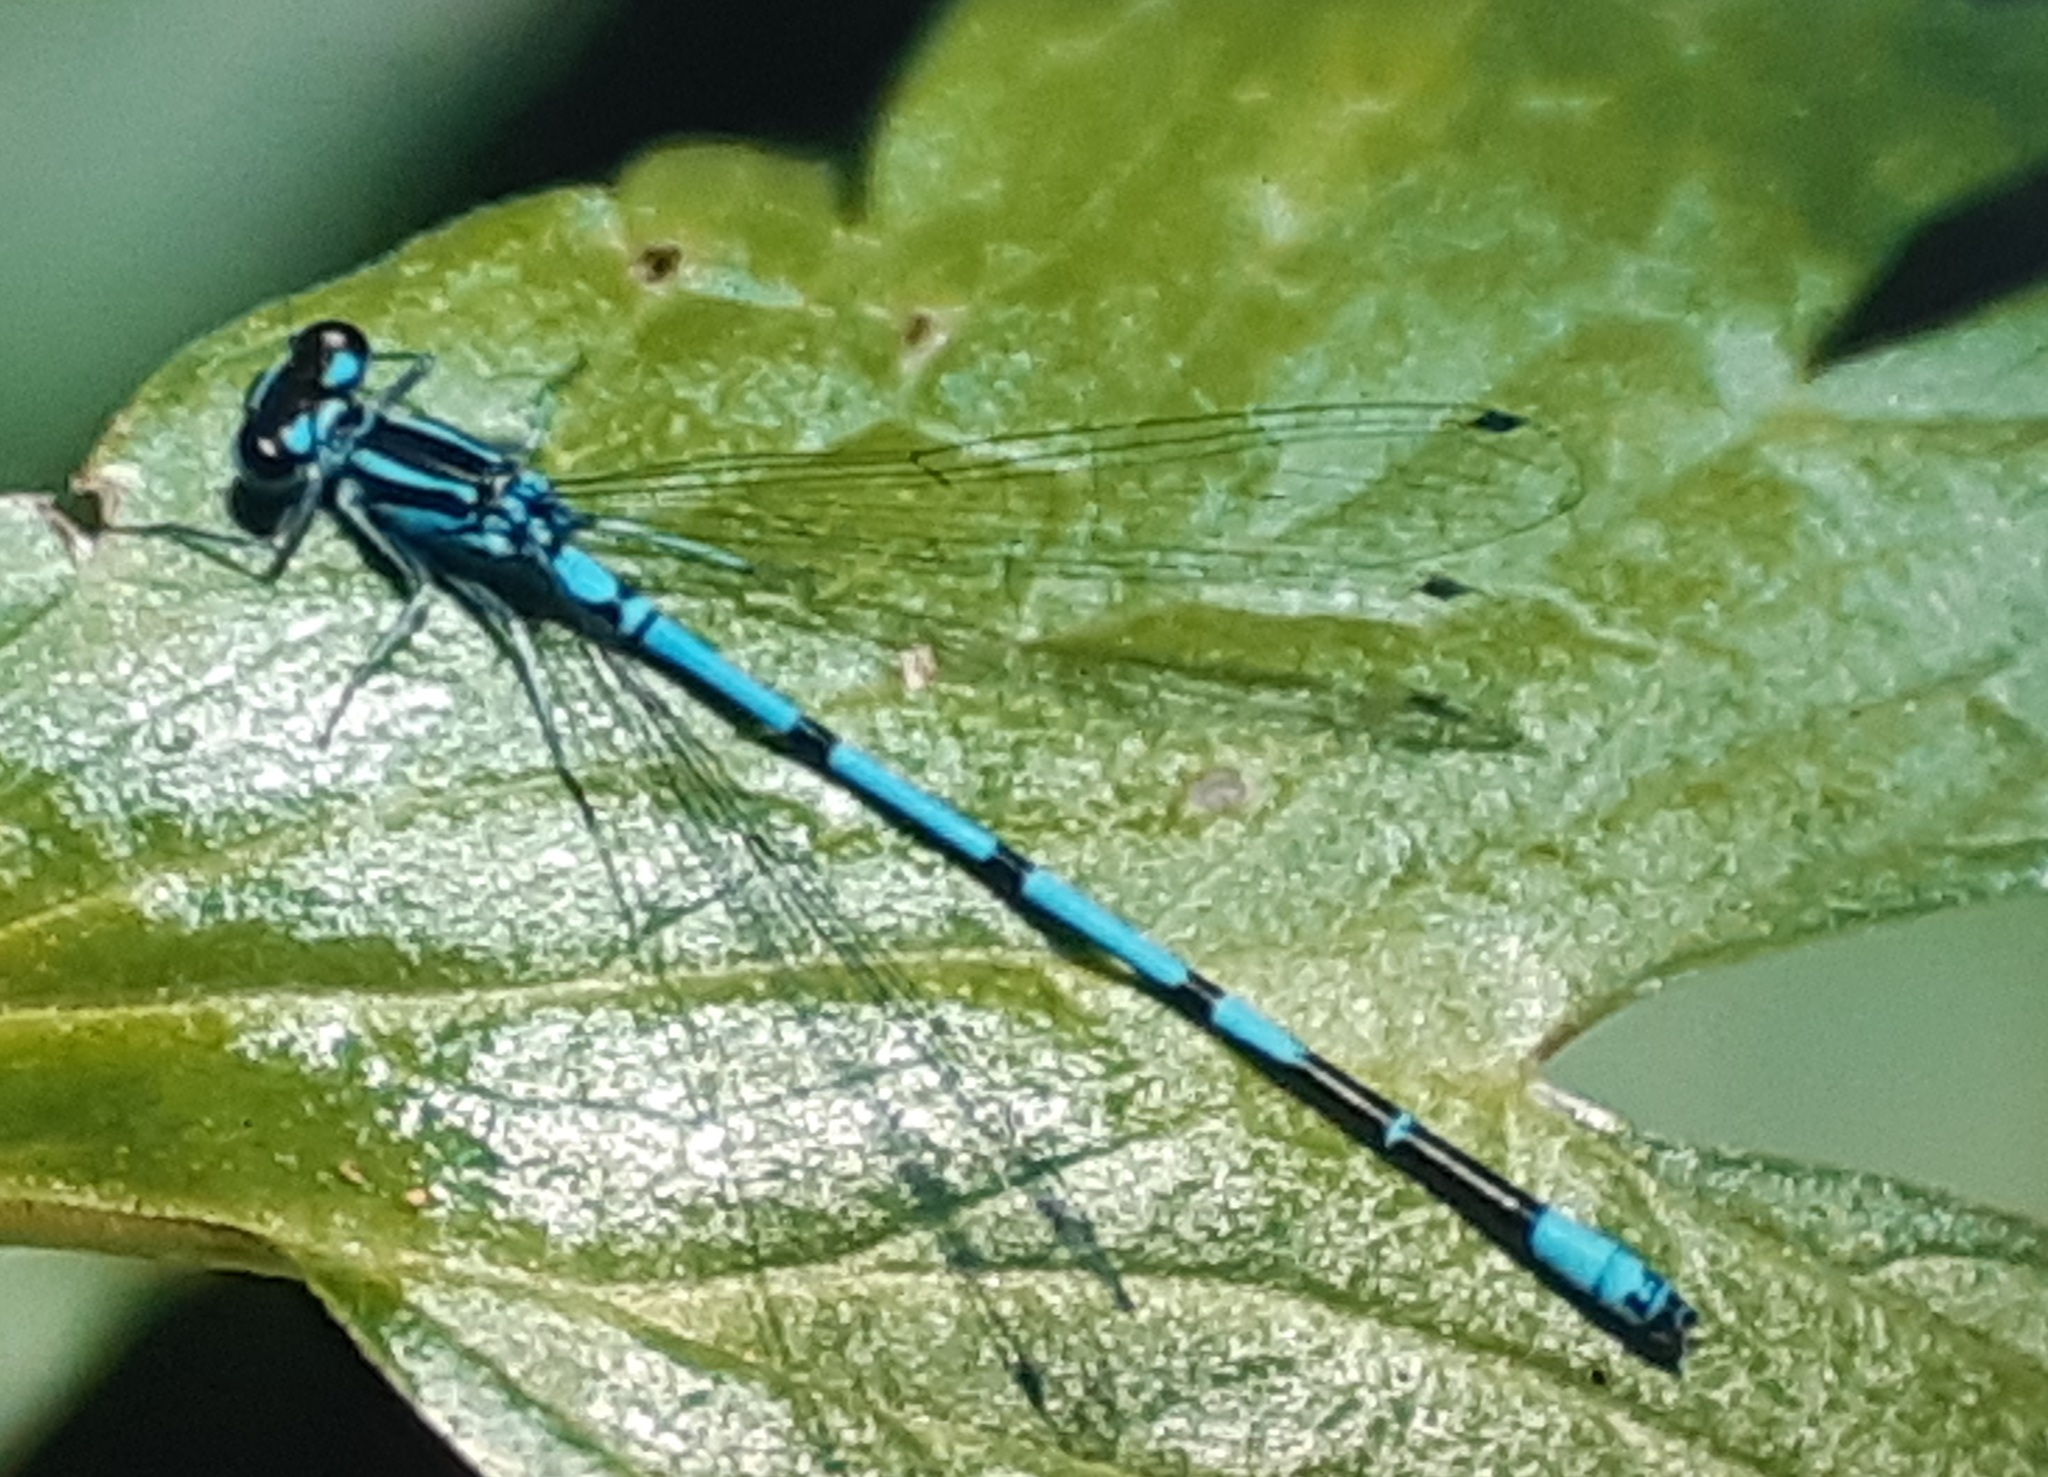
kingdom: Animalia
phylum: Arthropoda
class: Insecta
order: Odonata
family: Coenagrionidae
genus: Coenagrion
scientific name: Coenagrion puella
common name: Azure damselfly
